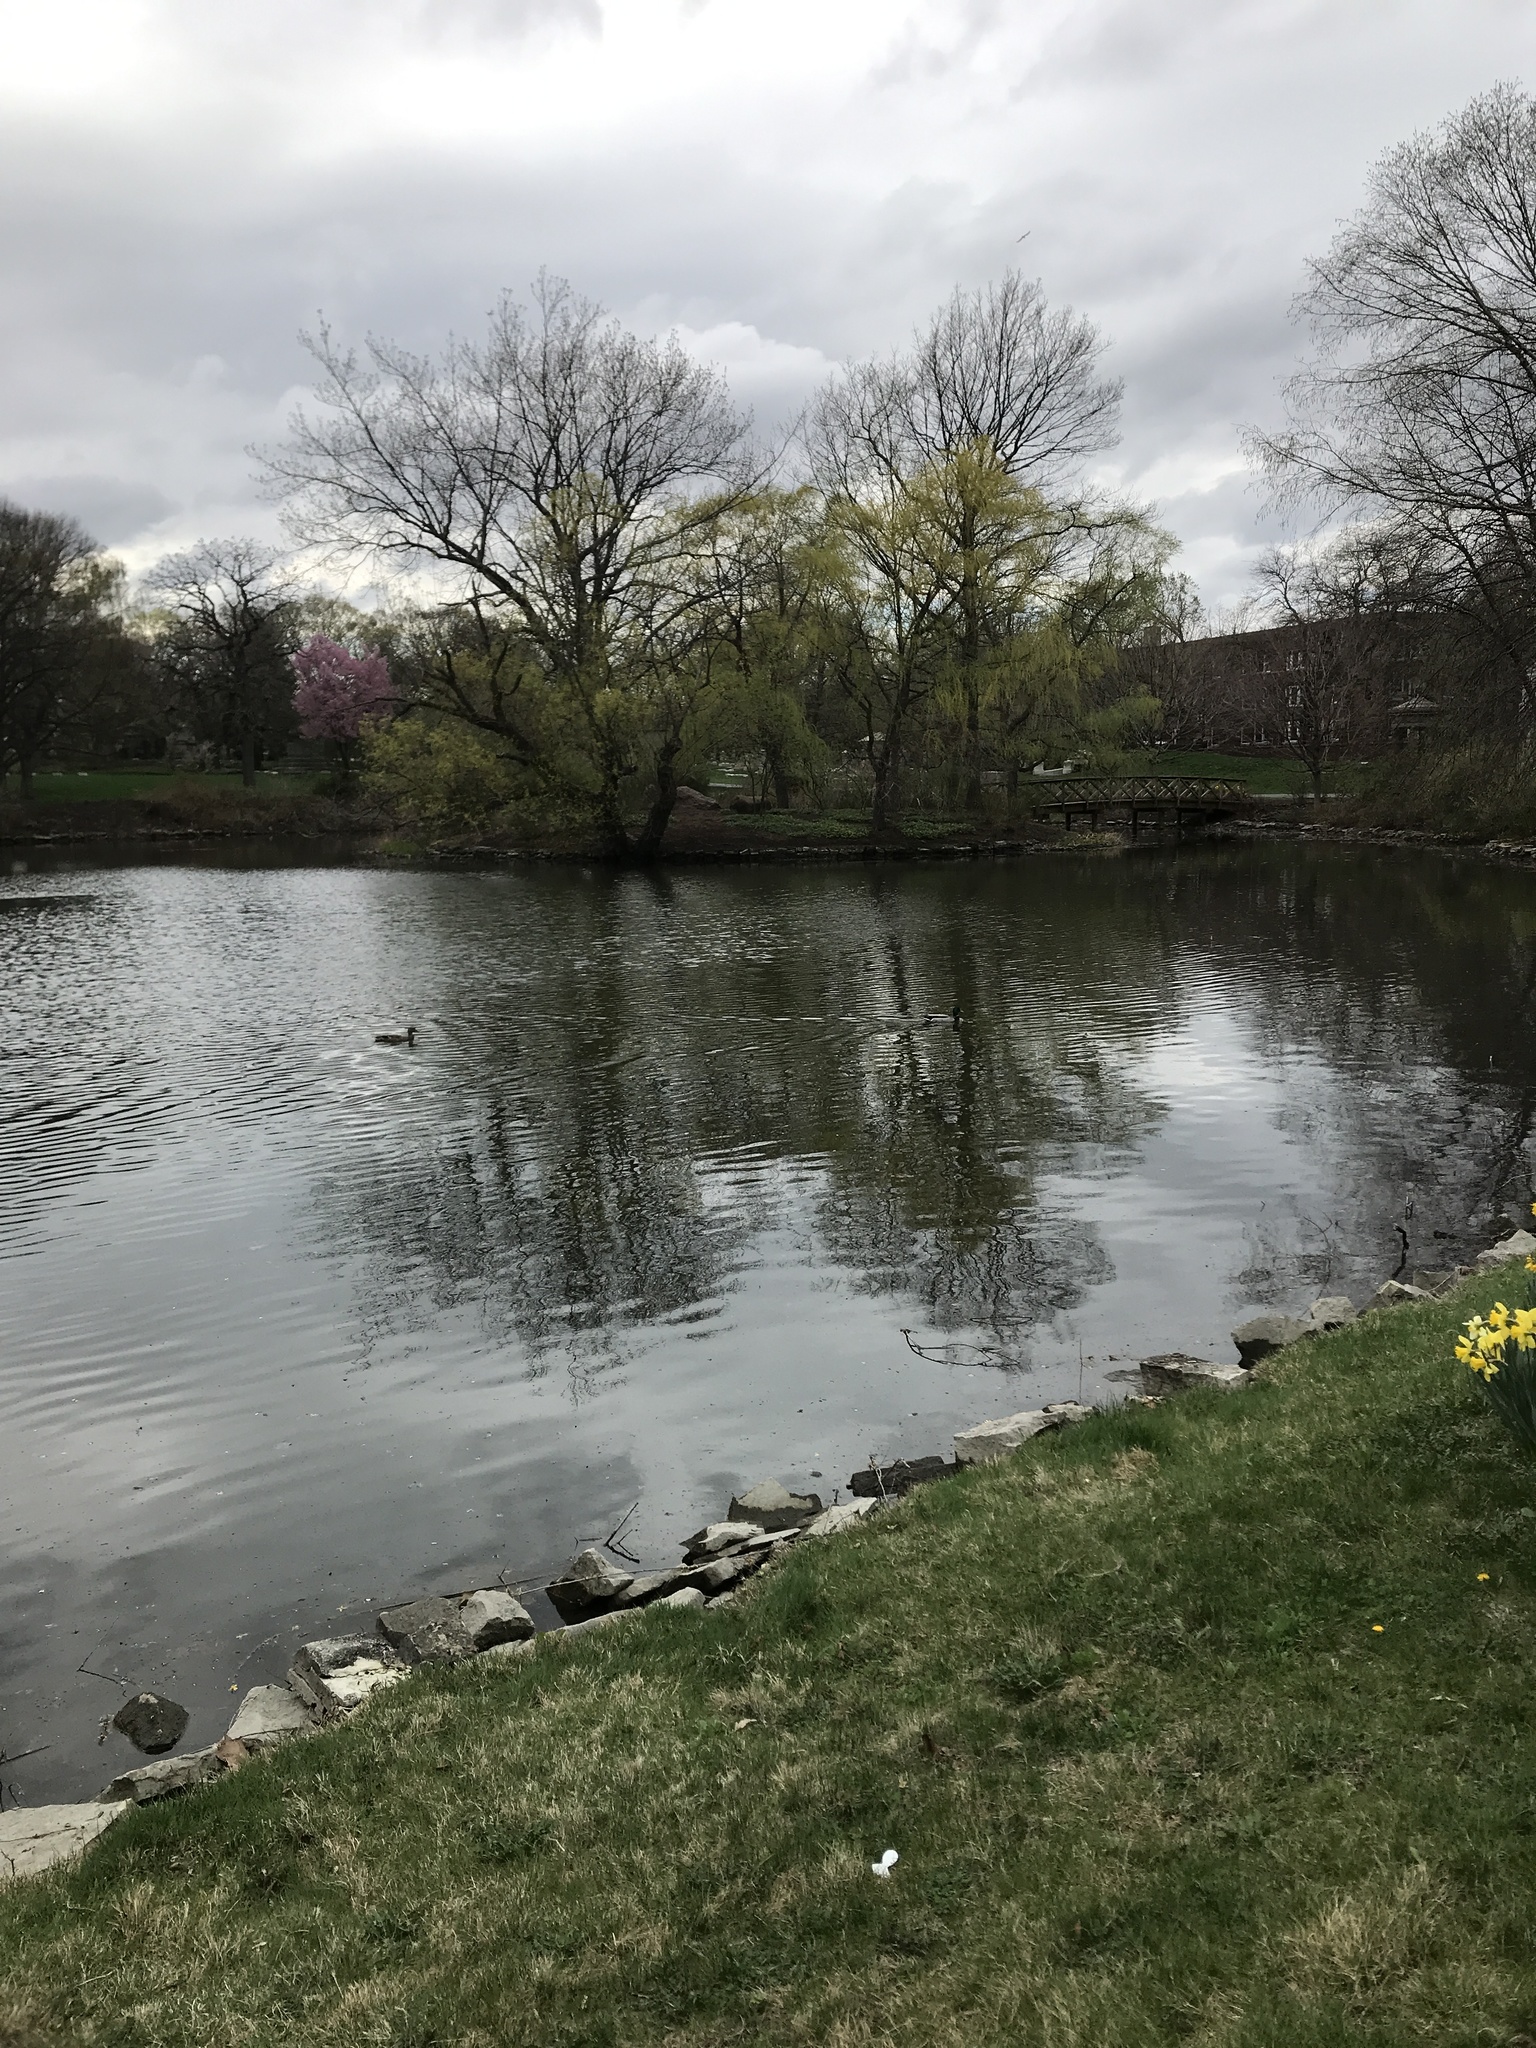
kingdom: Animalia
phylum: Chordata
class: Aves
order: Anseriformes
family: Anatidae
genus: Anas
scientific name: Anas platyrhynchos
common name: Mallard
